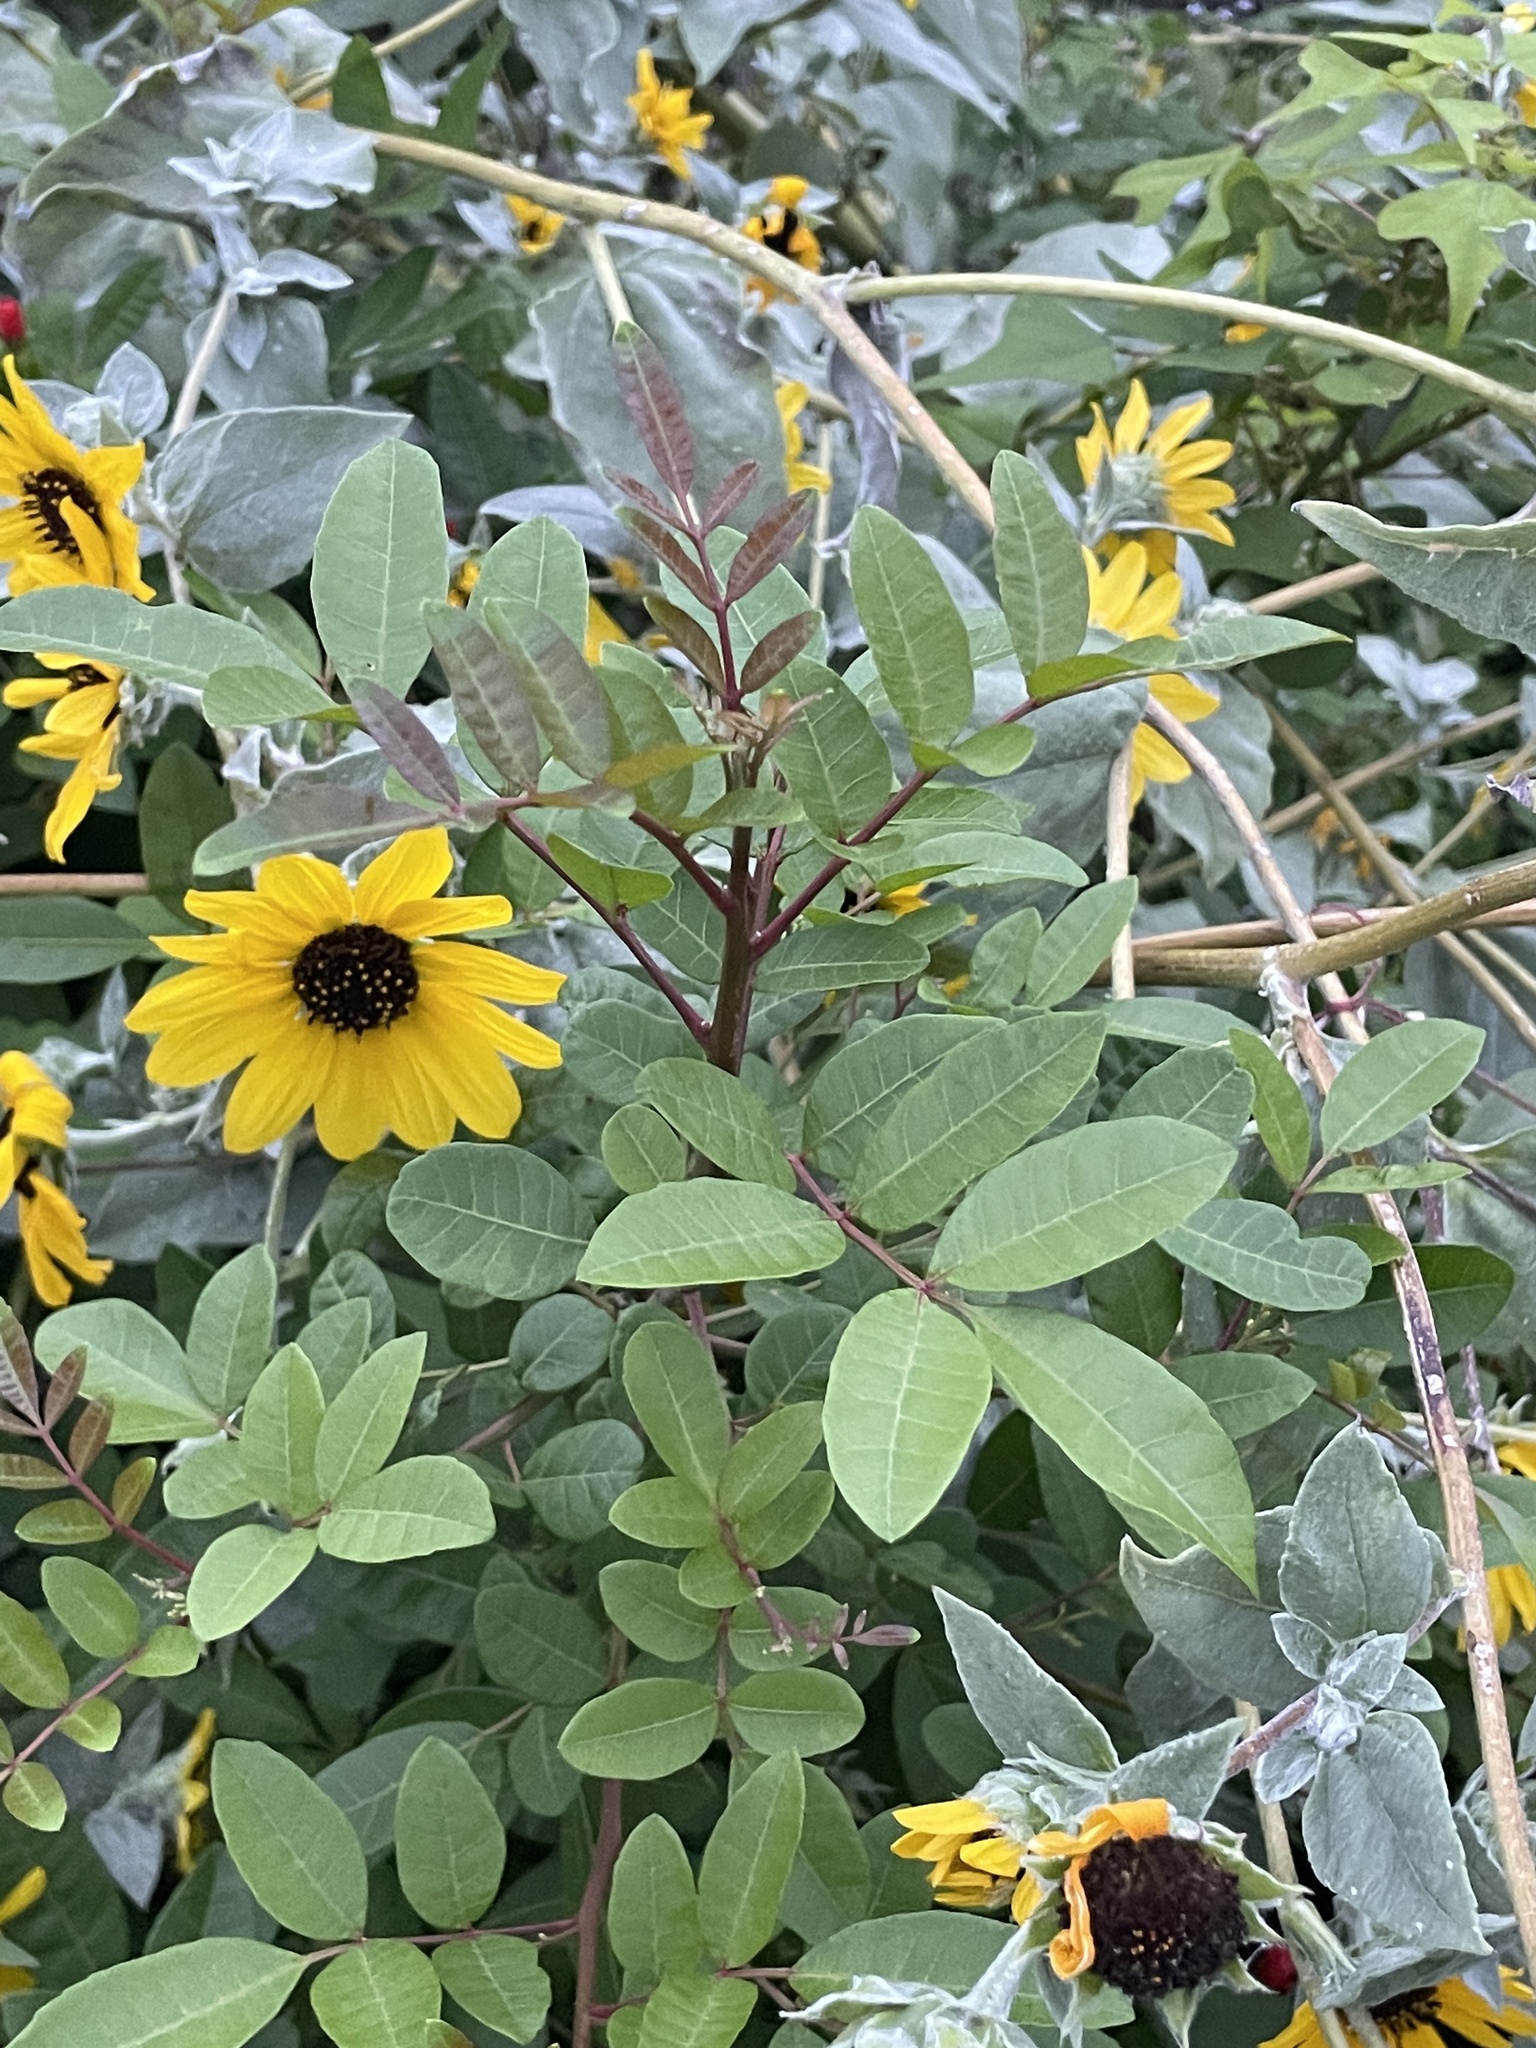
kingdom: Plantae
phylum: Tracheophyta
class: Magnoliopsida
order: Sapindales
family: Anacardiaceae
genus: Schinus
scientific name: Schinus terebinthifolia
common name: Brazilian peppertree
